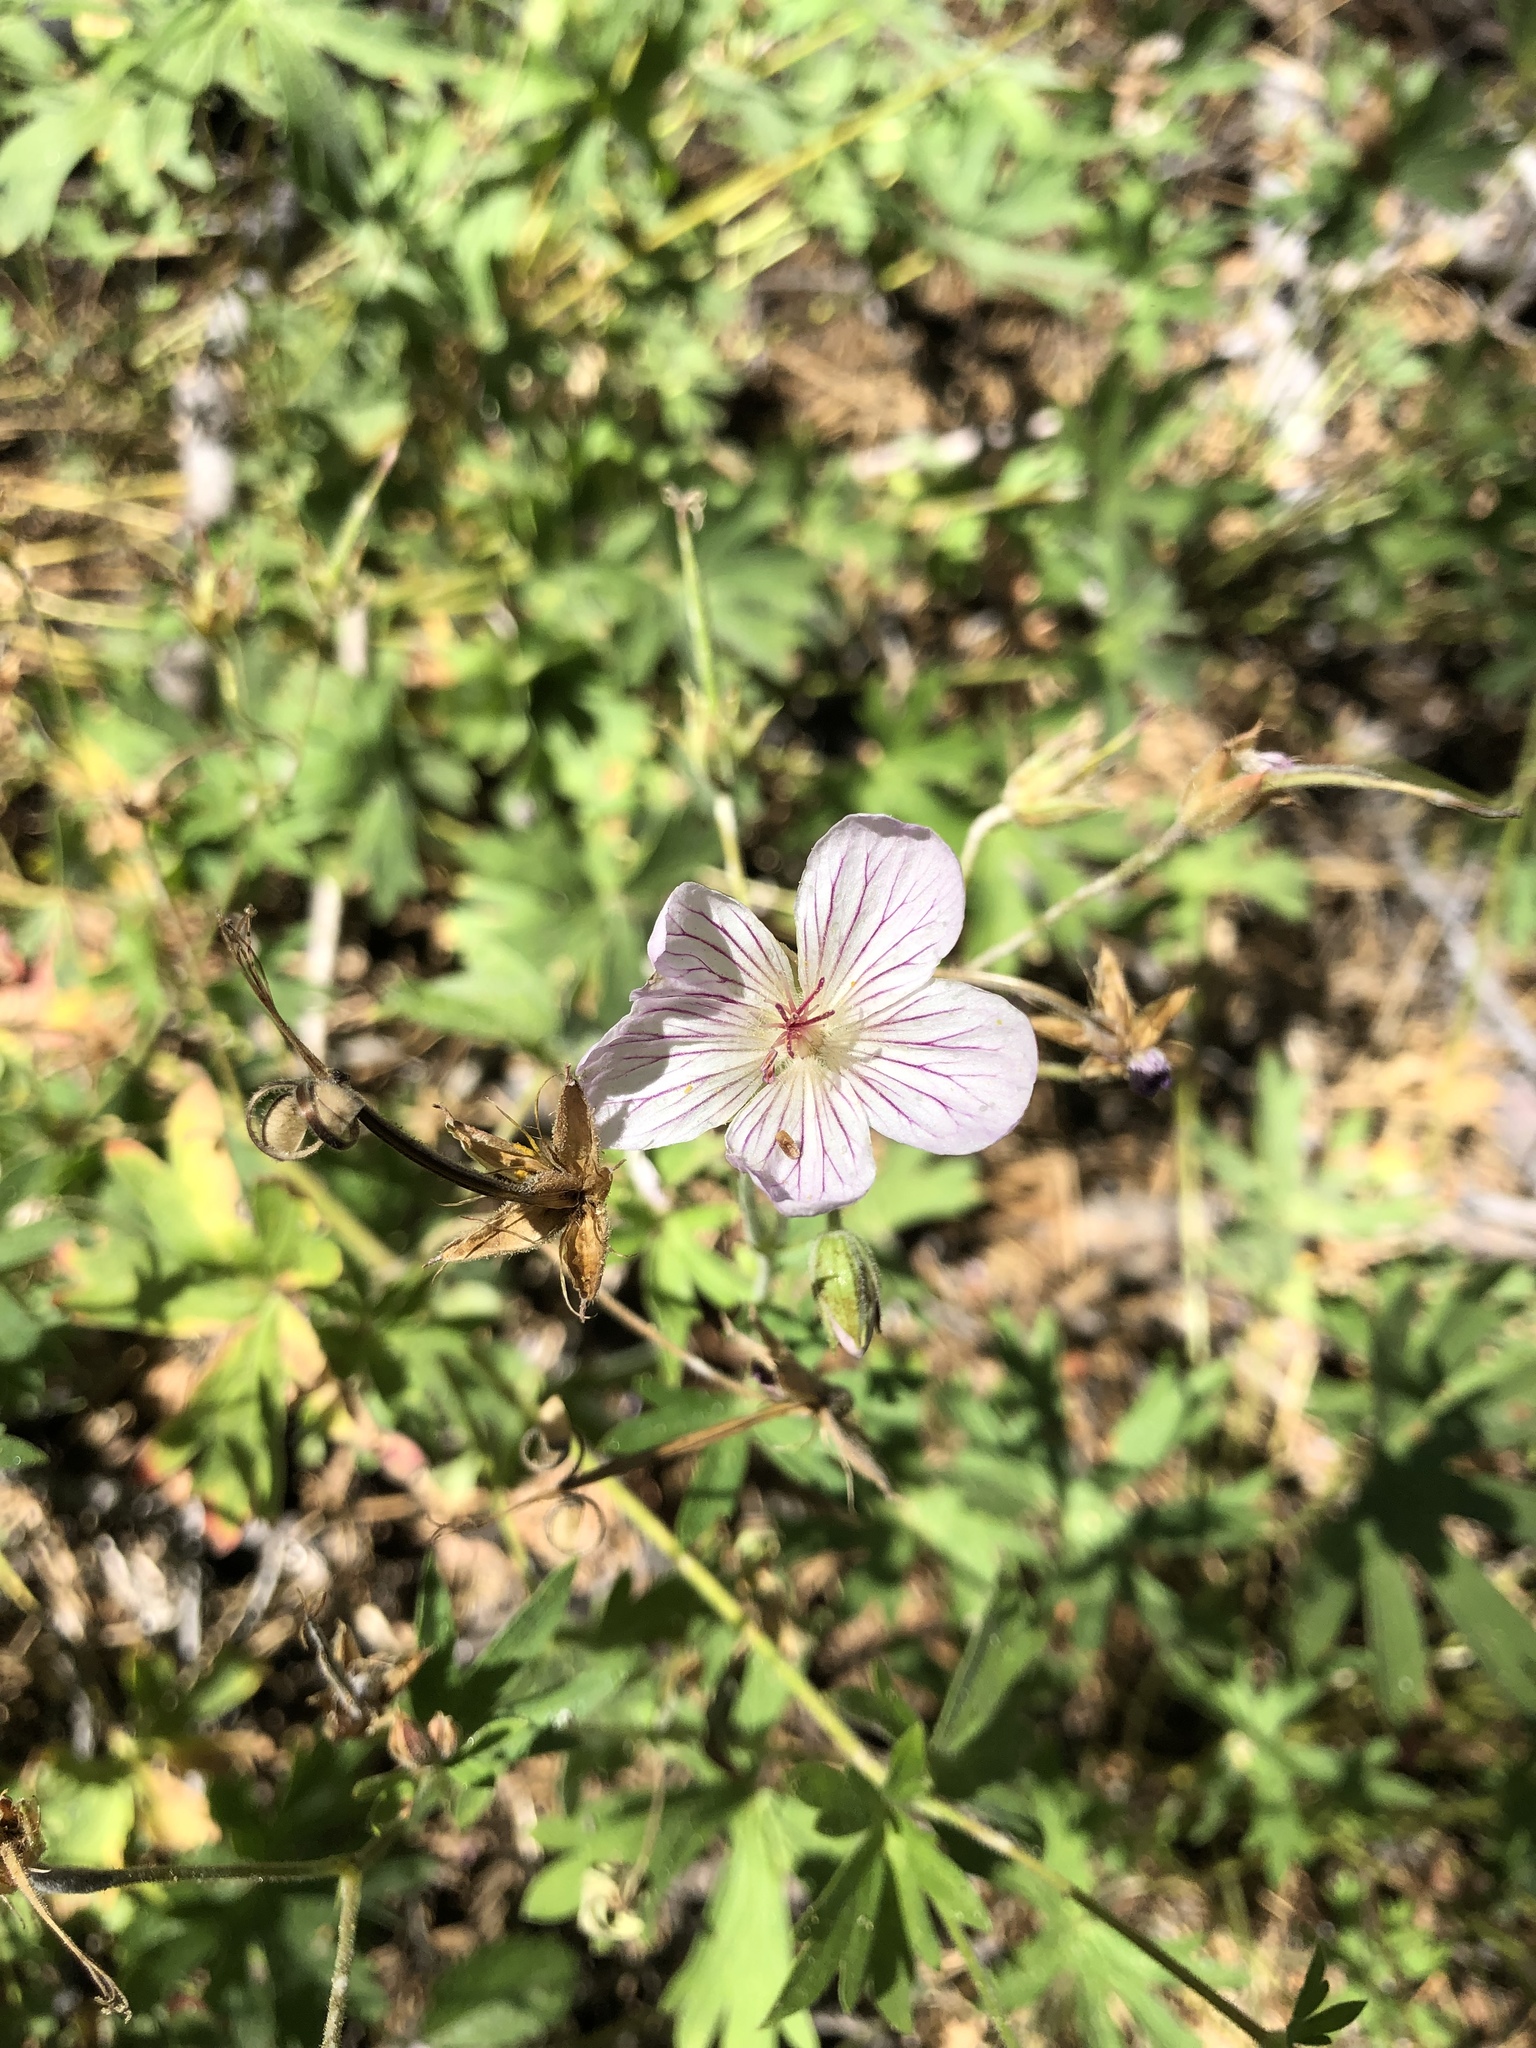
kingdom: Plantae
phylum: Tracheophyta
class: Magnoliopsida
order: Geraniales
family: Geraniaceae
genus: Geranium
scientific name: Geranium californicum
